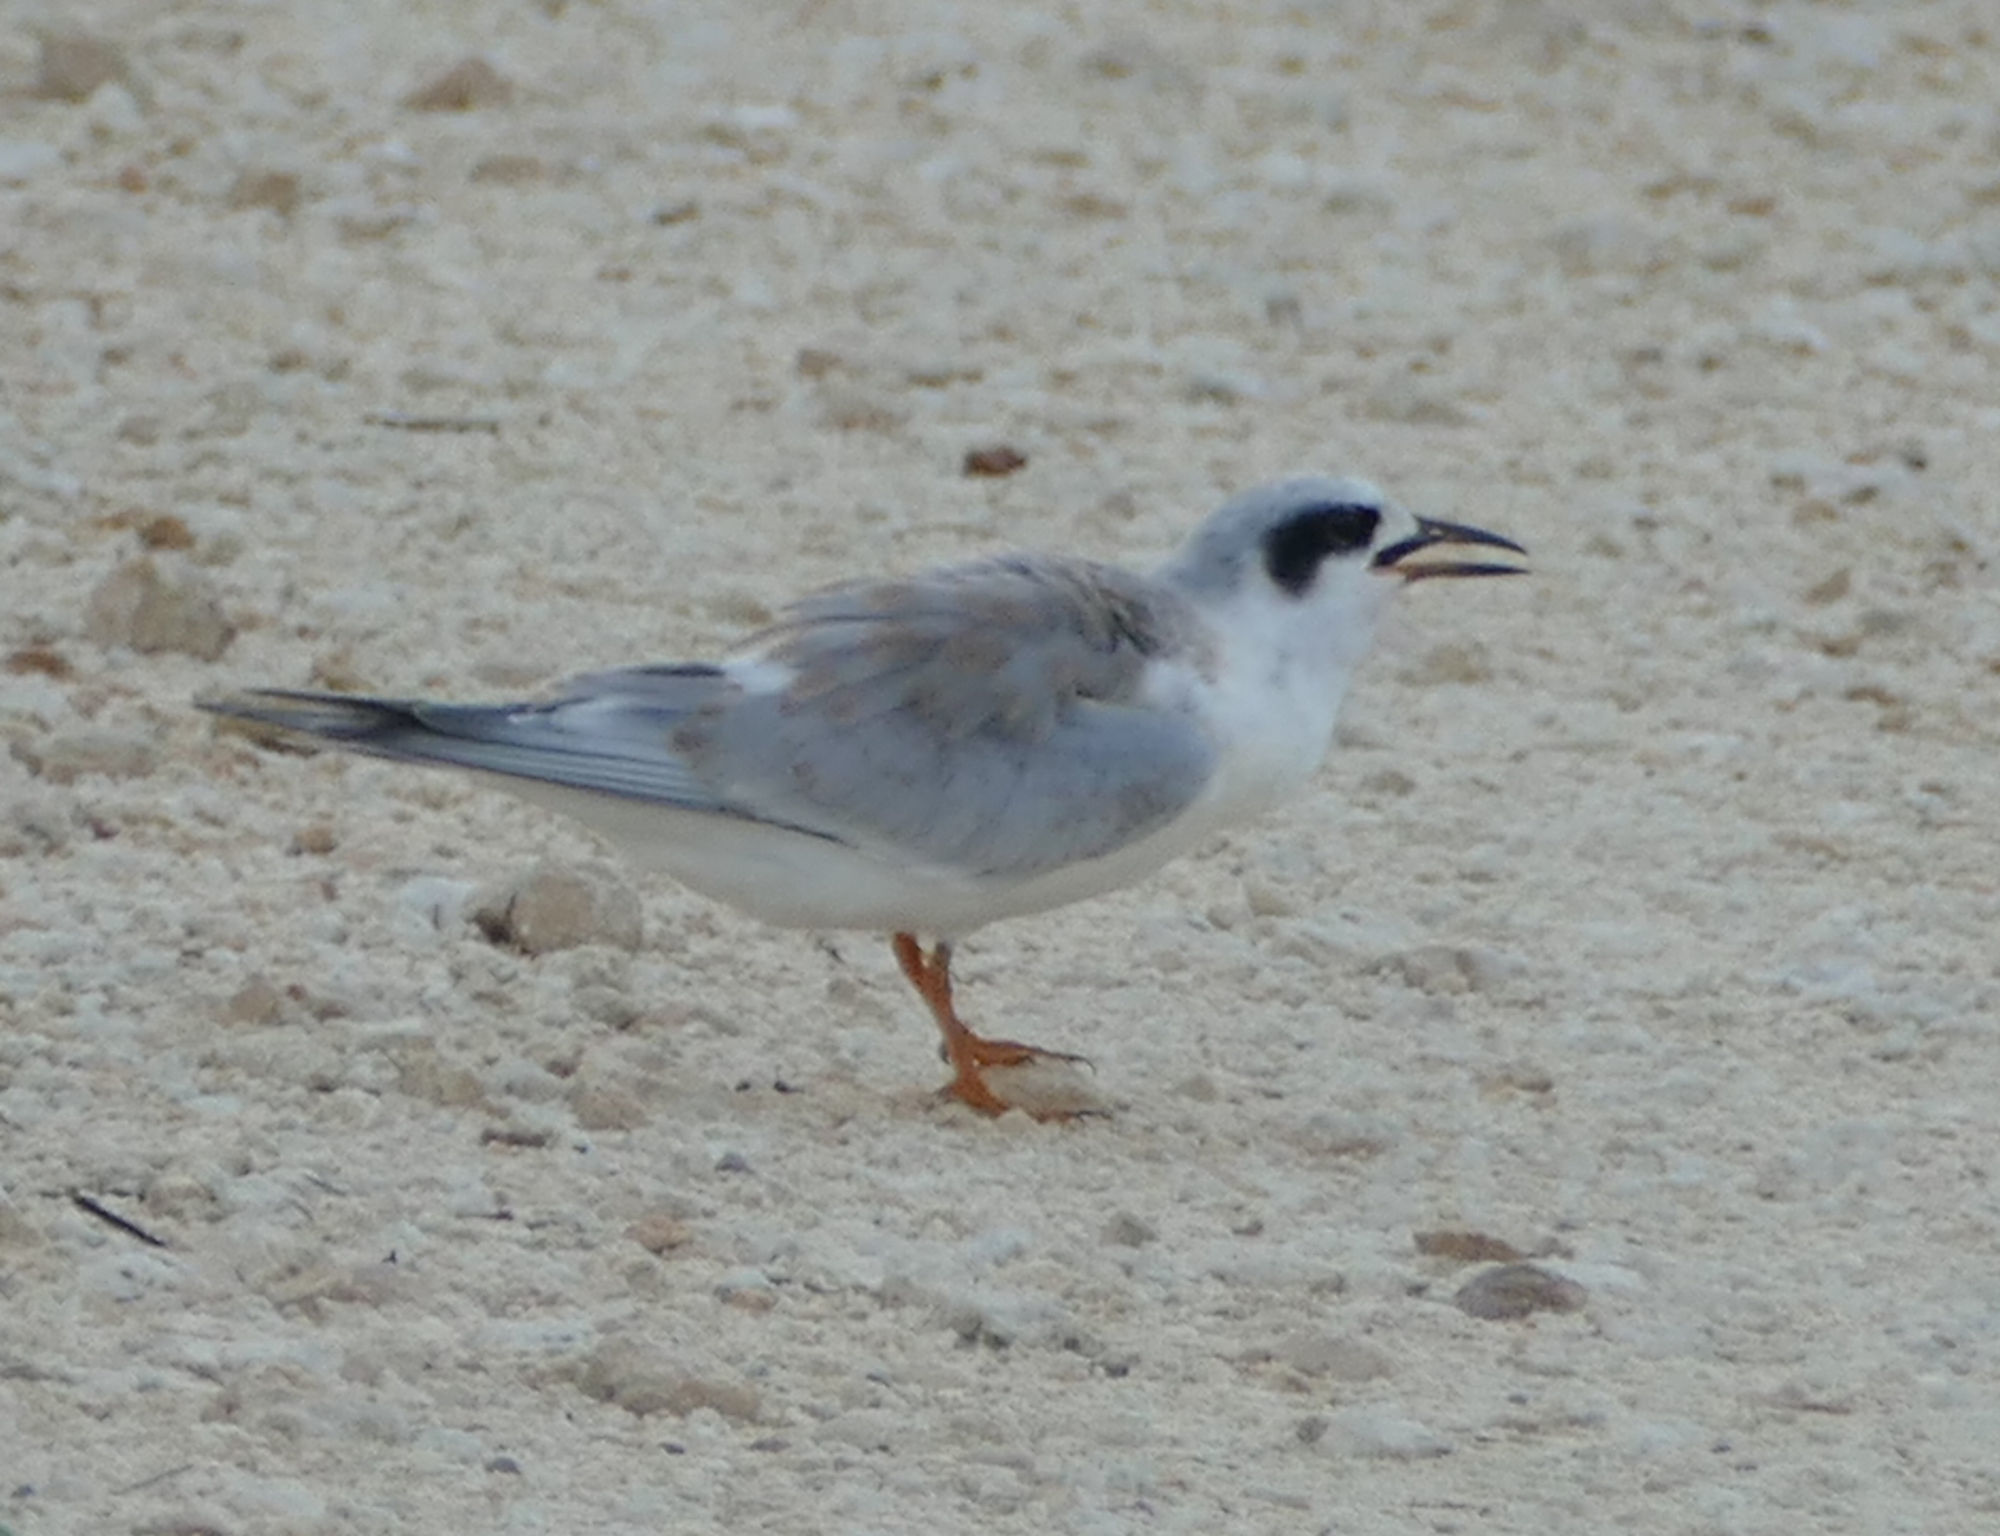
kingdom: Animalia
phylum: Chordata
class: Aves
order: Charadriiformes
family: Laridae
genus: Sterna
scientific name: Sterna forsteri
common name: Forster's tern
